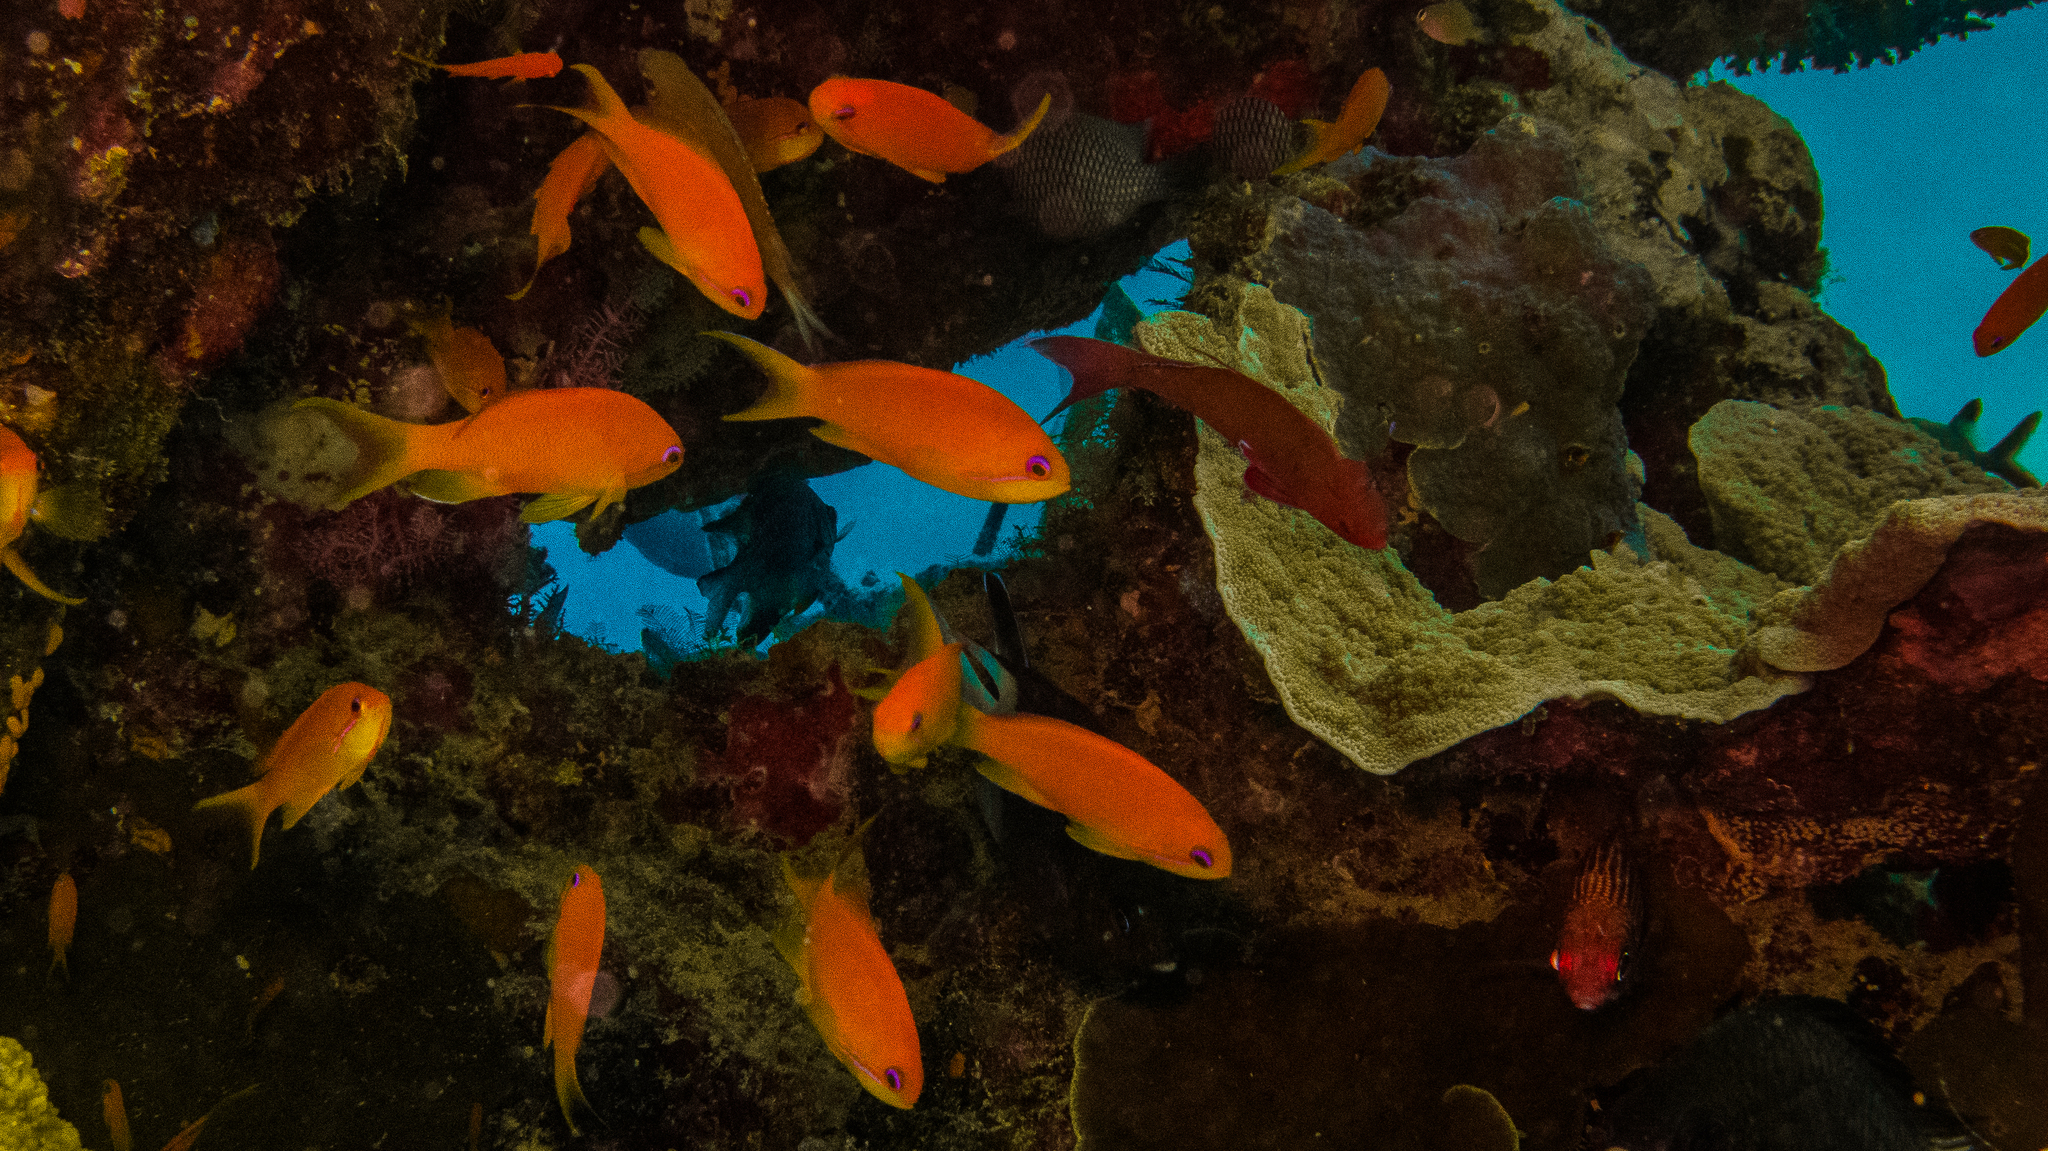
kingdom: Animalia
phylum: Chordata
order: Perciformes
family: Serranidae
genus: Pseudanthias
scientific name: Pseudanthias squamipinnis
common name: Scalefin anthias
